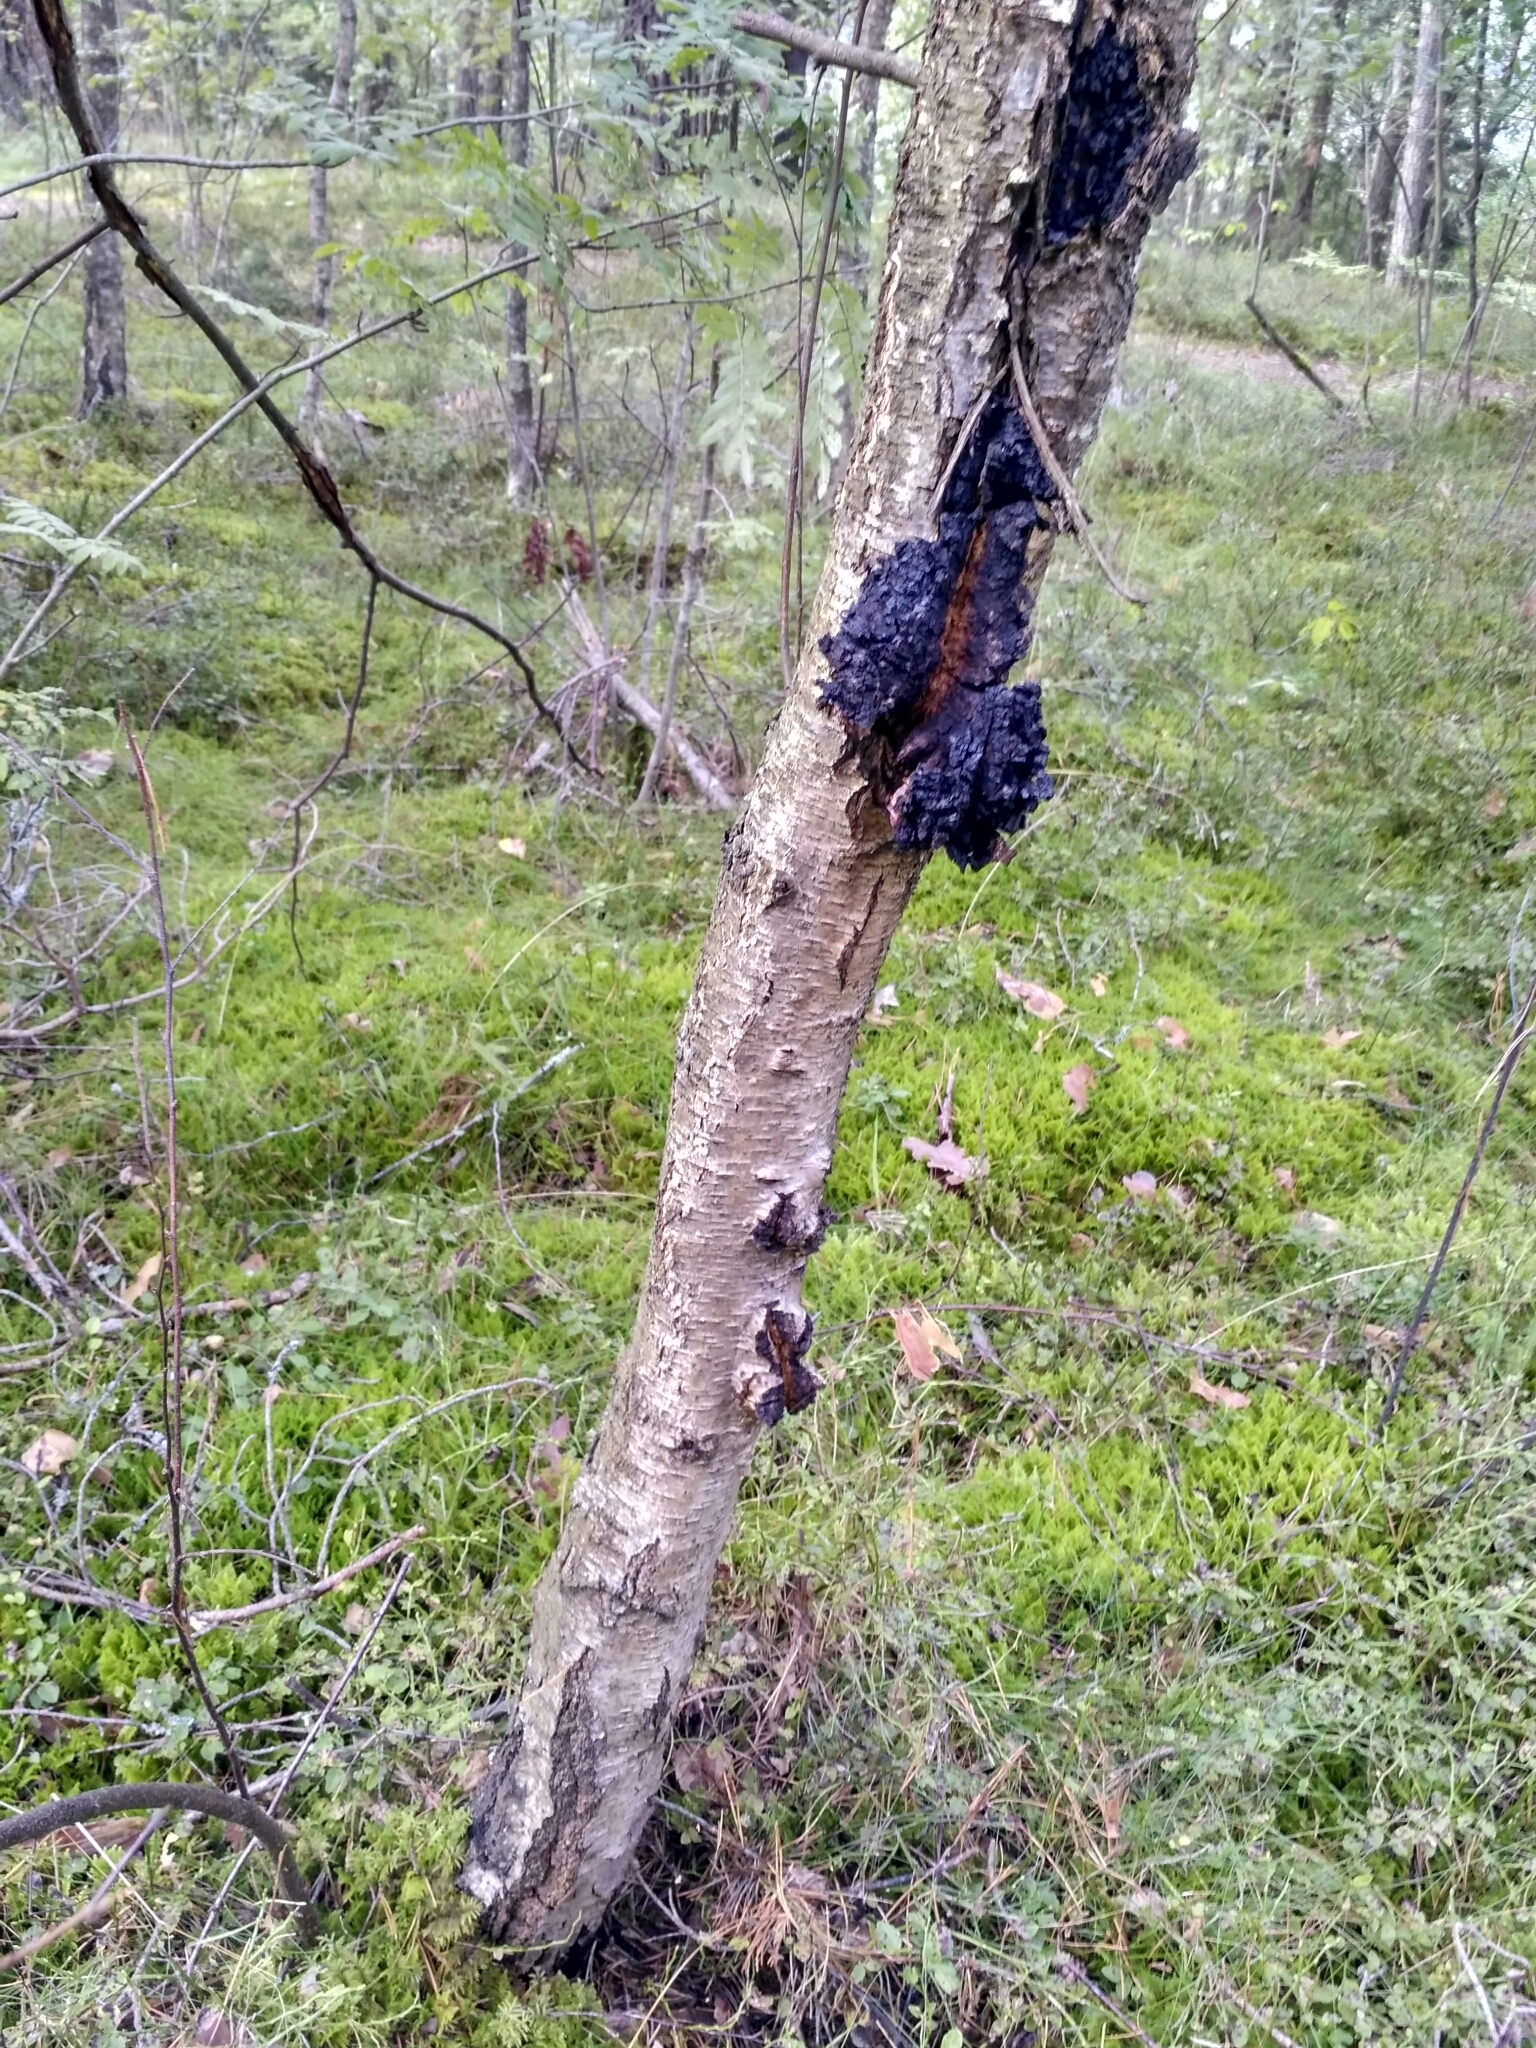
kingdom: Fungi
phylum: Basidiomycota
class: Agaricomycetes
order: Hymenochaetales
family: Hymenochaetaceae
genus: Inonotus
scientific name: Inonotus obliquus
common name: Chaga
